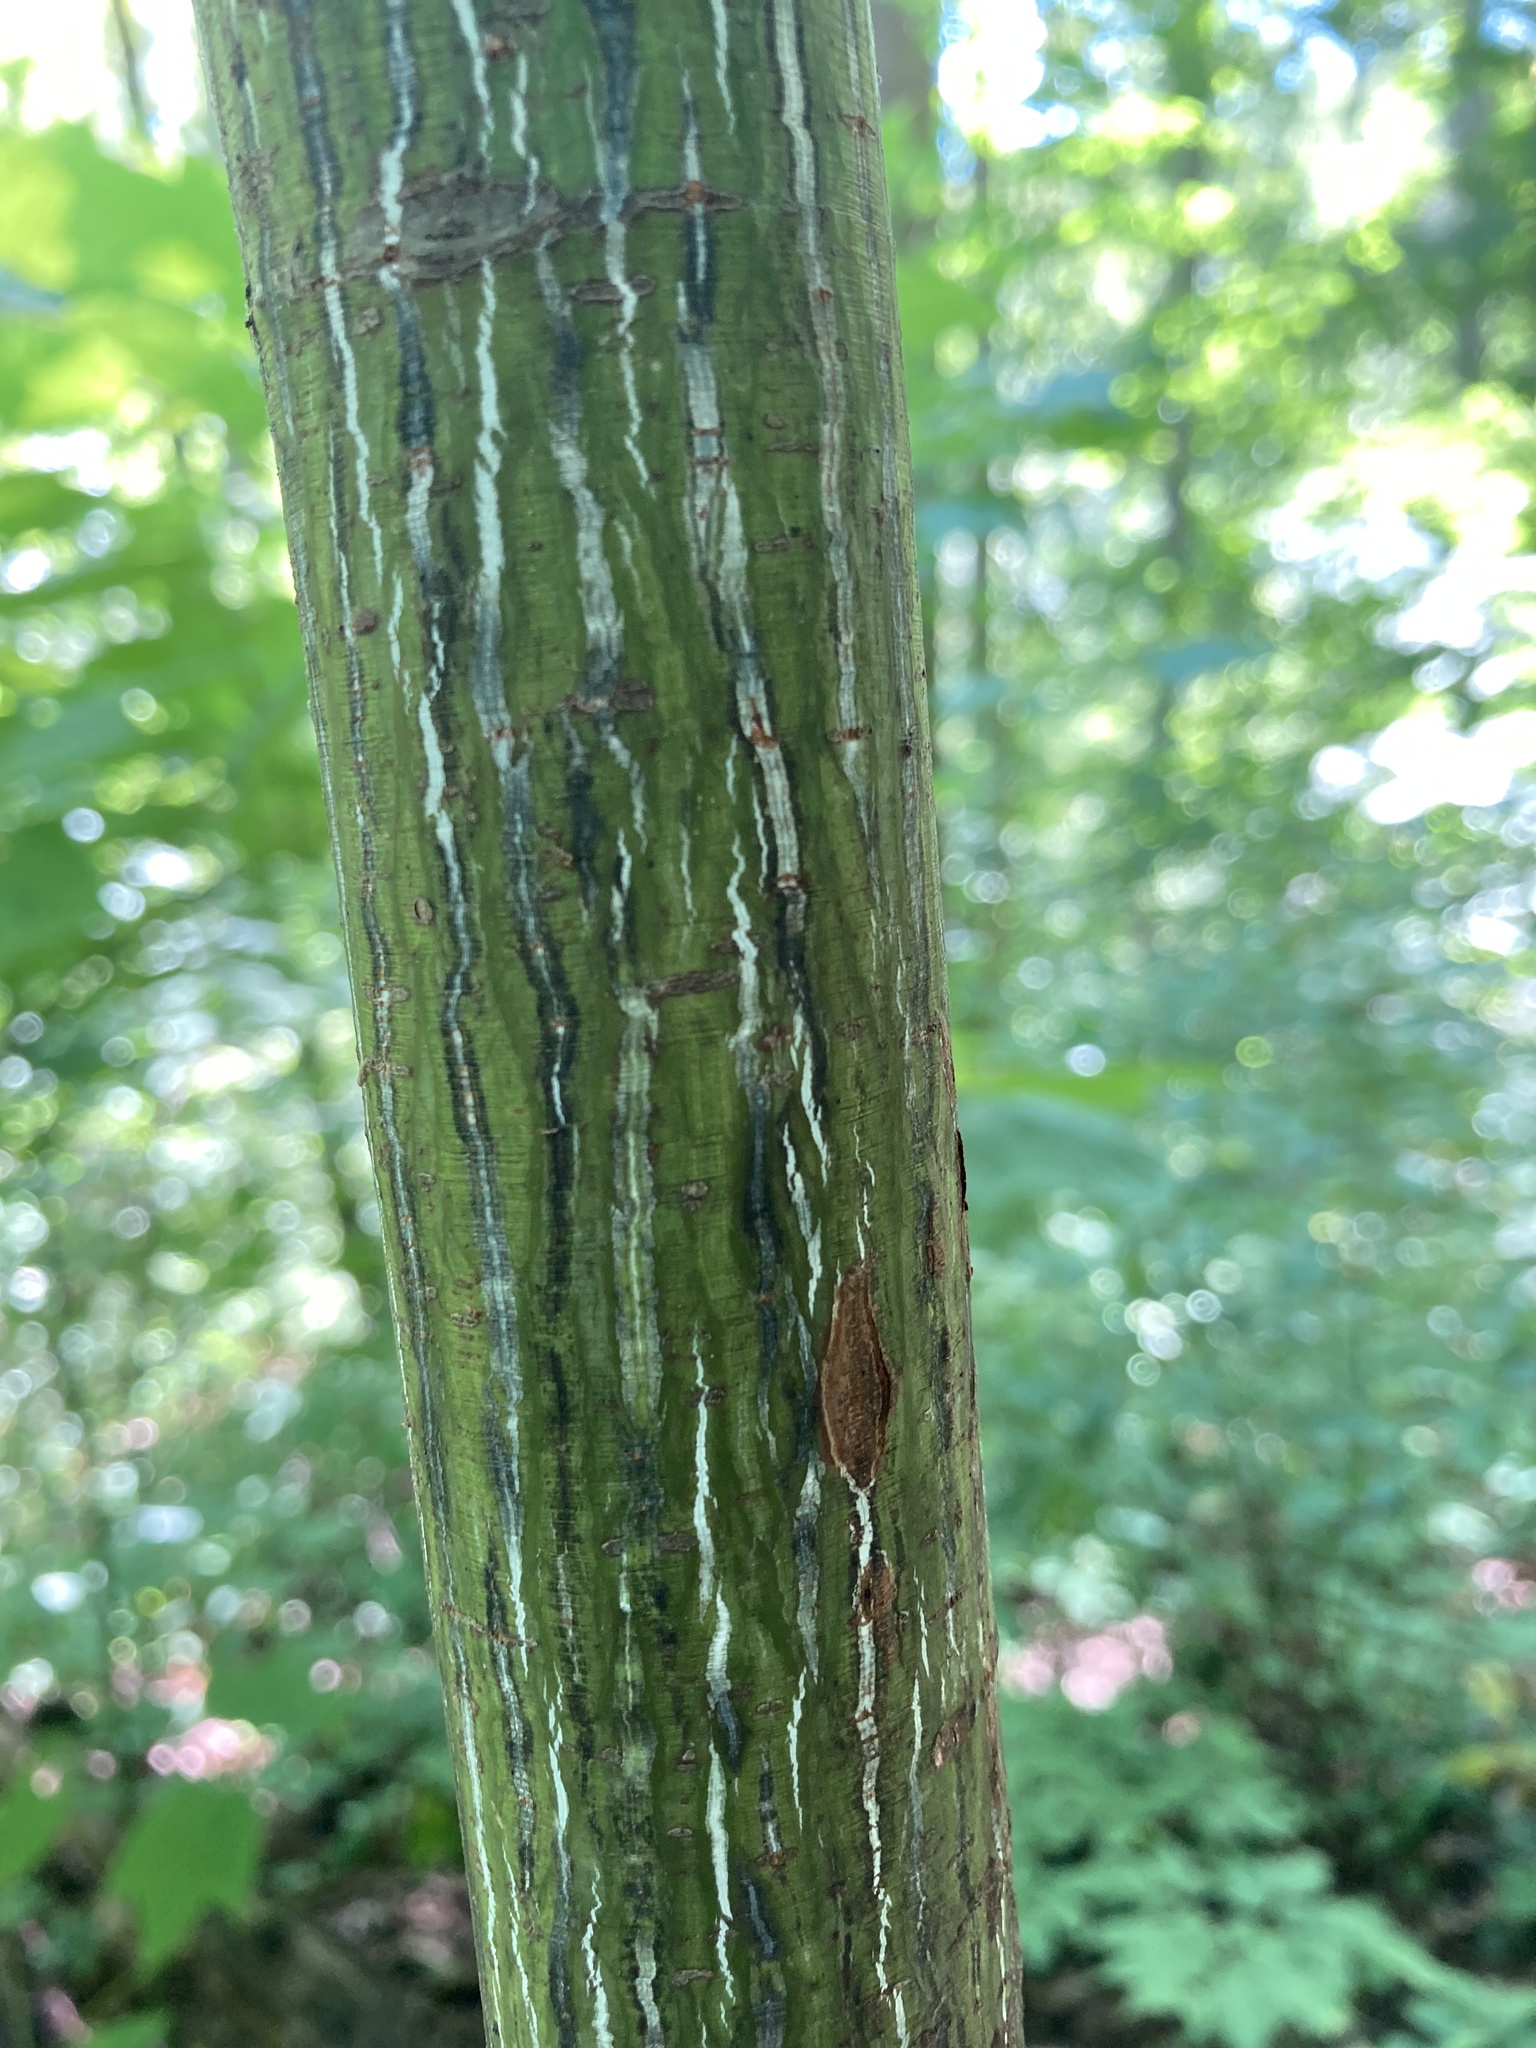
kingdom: Plantae
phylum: Tracheophyta
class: Magnoliopsida
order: Sapindales
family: Sapindaceae
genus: Acer
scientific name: Acer pensylvanicum
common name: Moosewood
